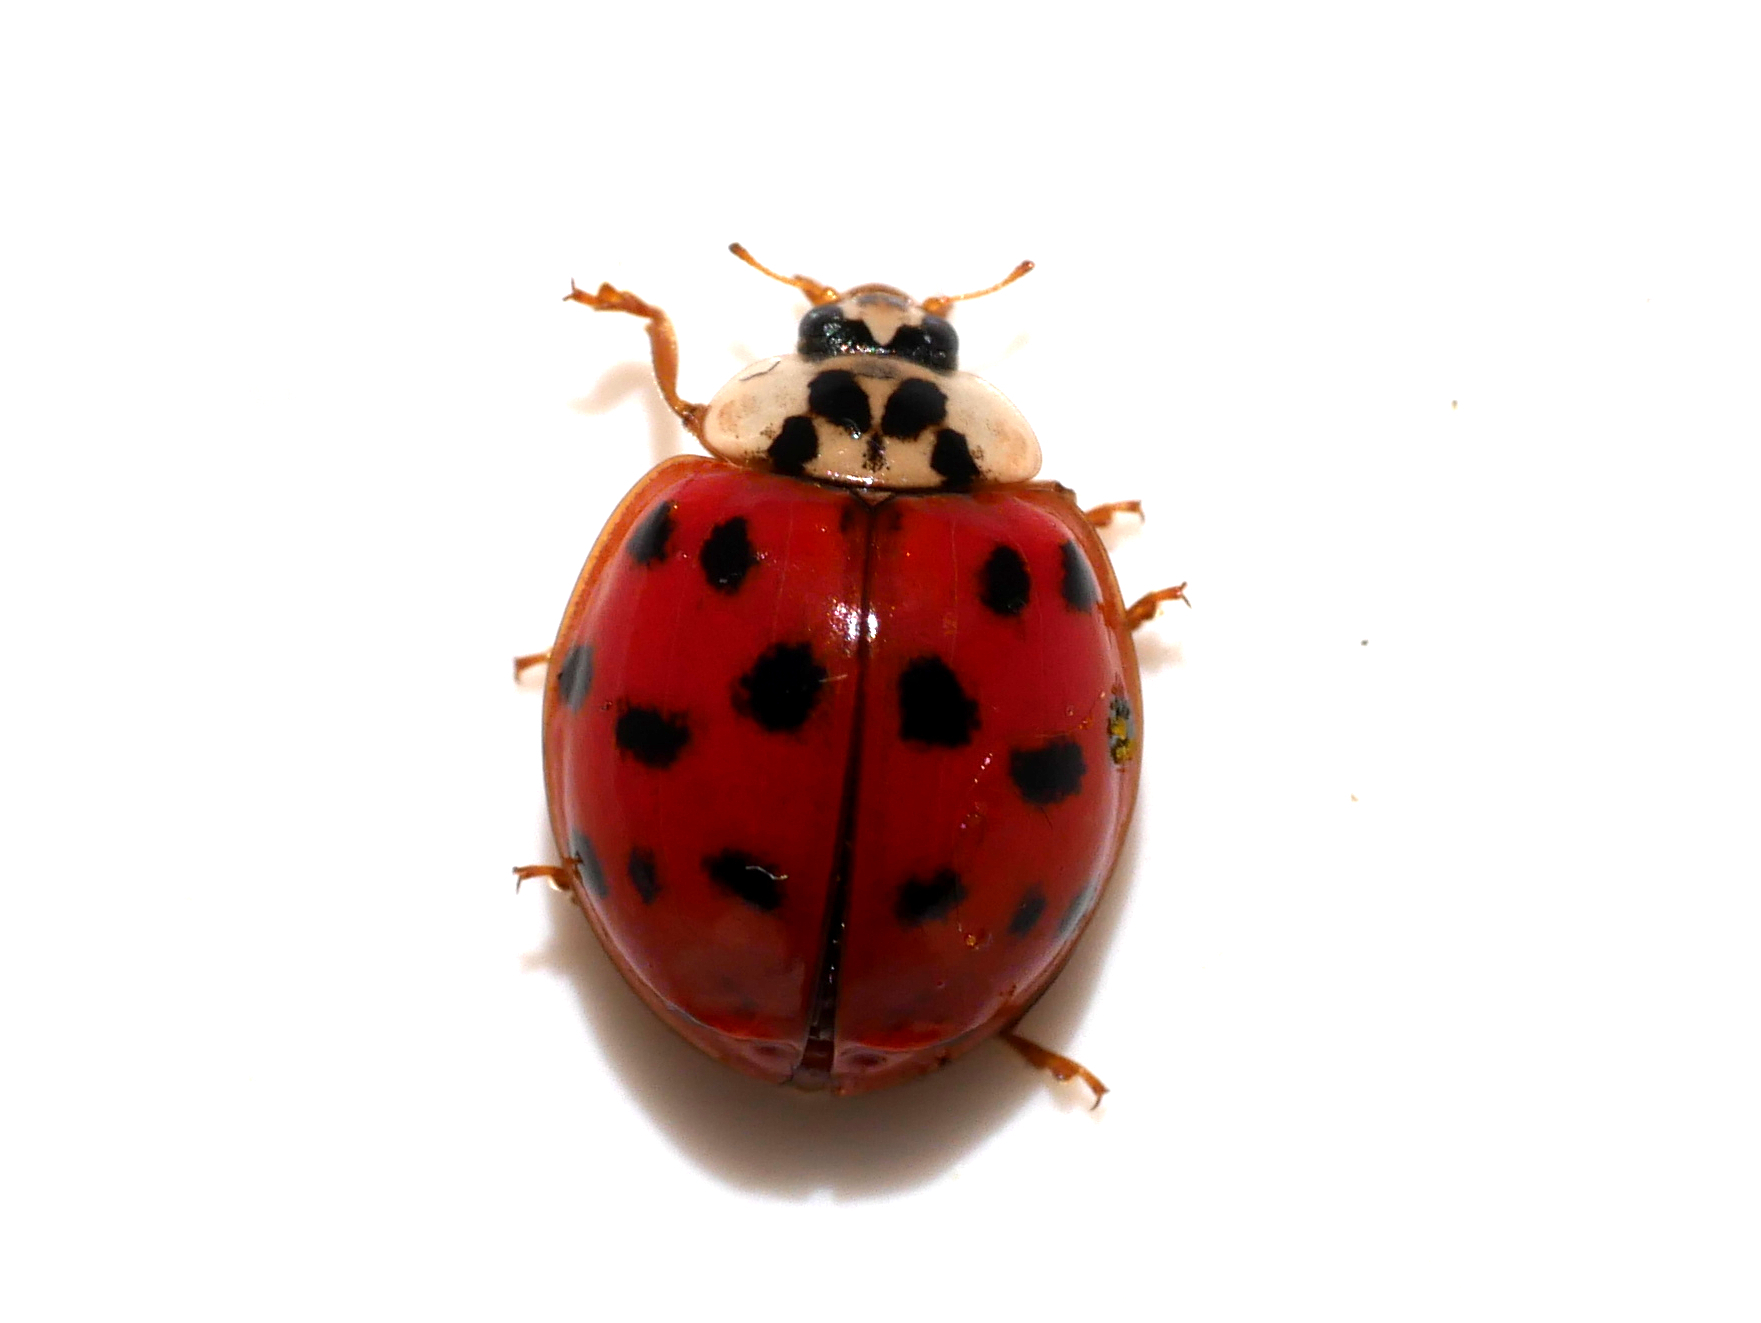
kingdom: Animalia
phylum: Arthropoda
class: Insecta
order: Coleoptera
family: Coccinellidae
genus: Harmonia
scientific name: Harmonia axyridis
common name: Harlequin ladybird
